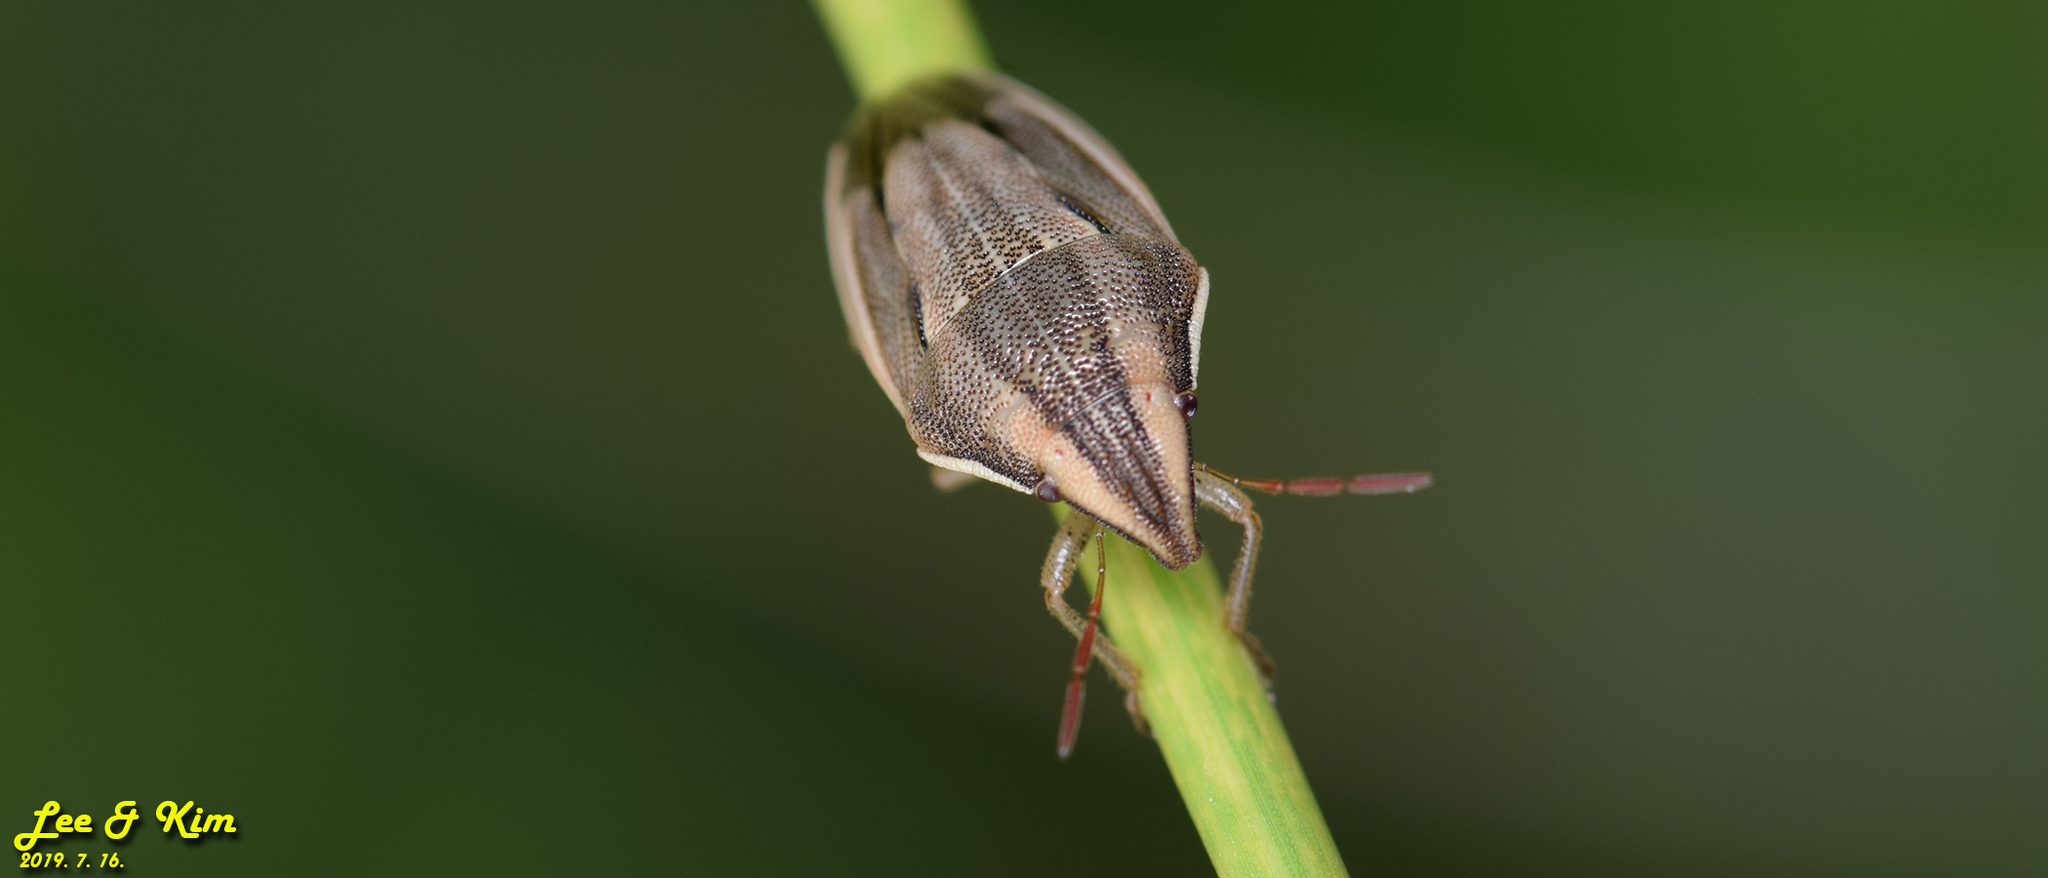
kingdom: Animalia
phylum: Arthropoda
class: Insecta
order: Hemiptera
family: Pentatomidae
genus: Aelia
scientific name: Aelia
